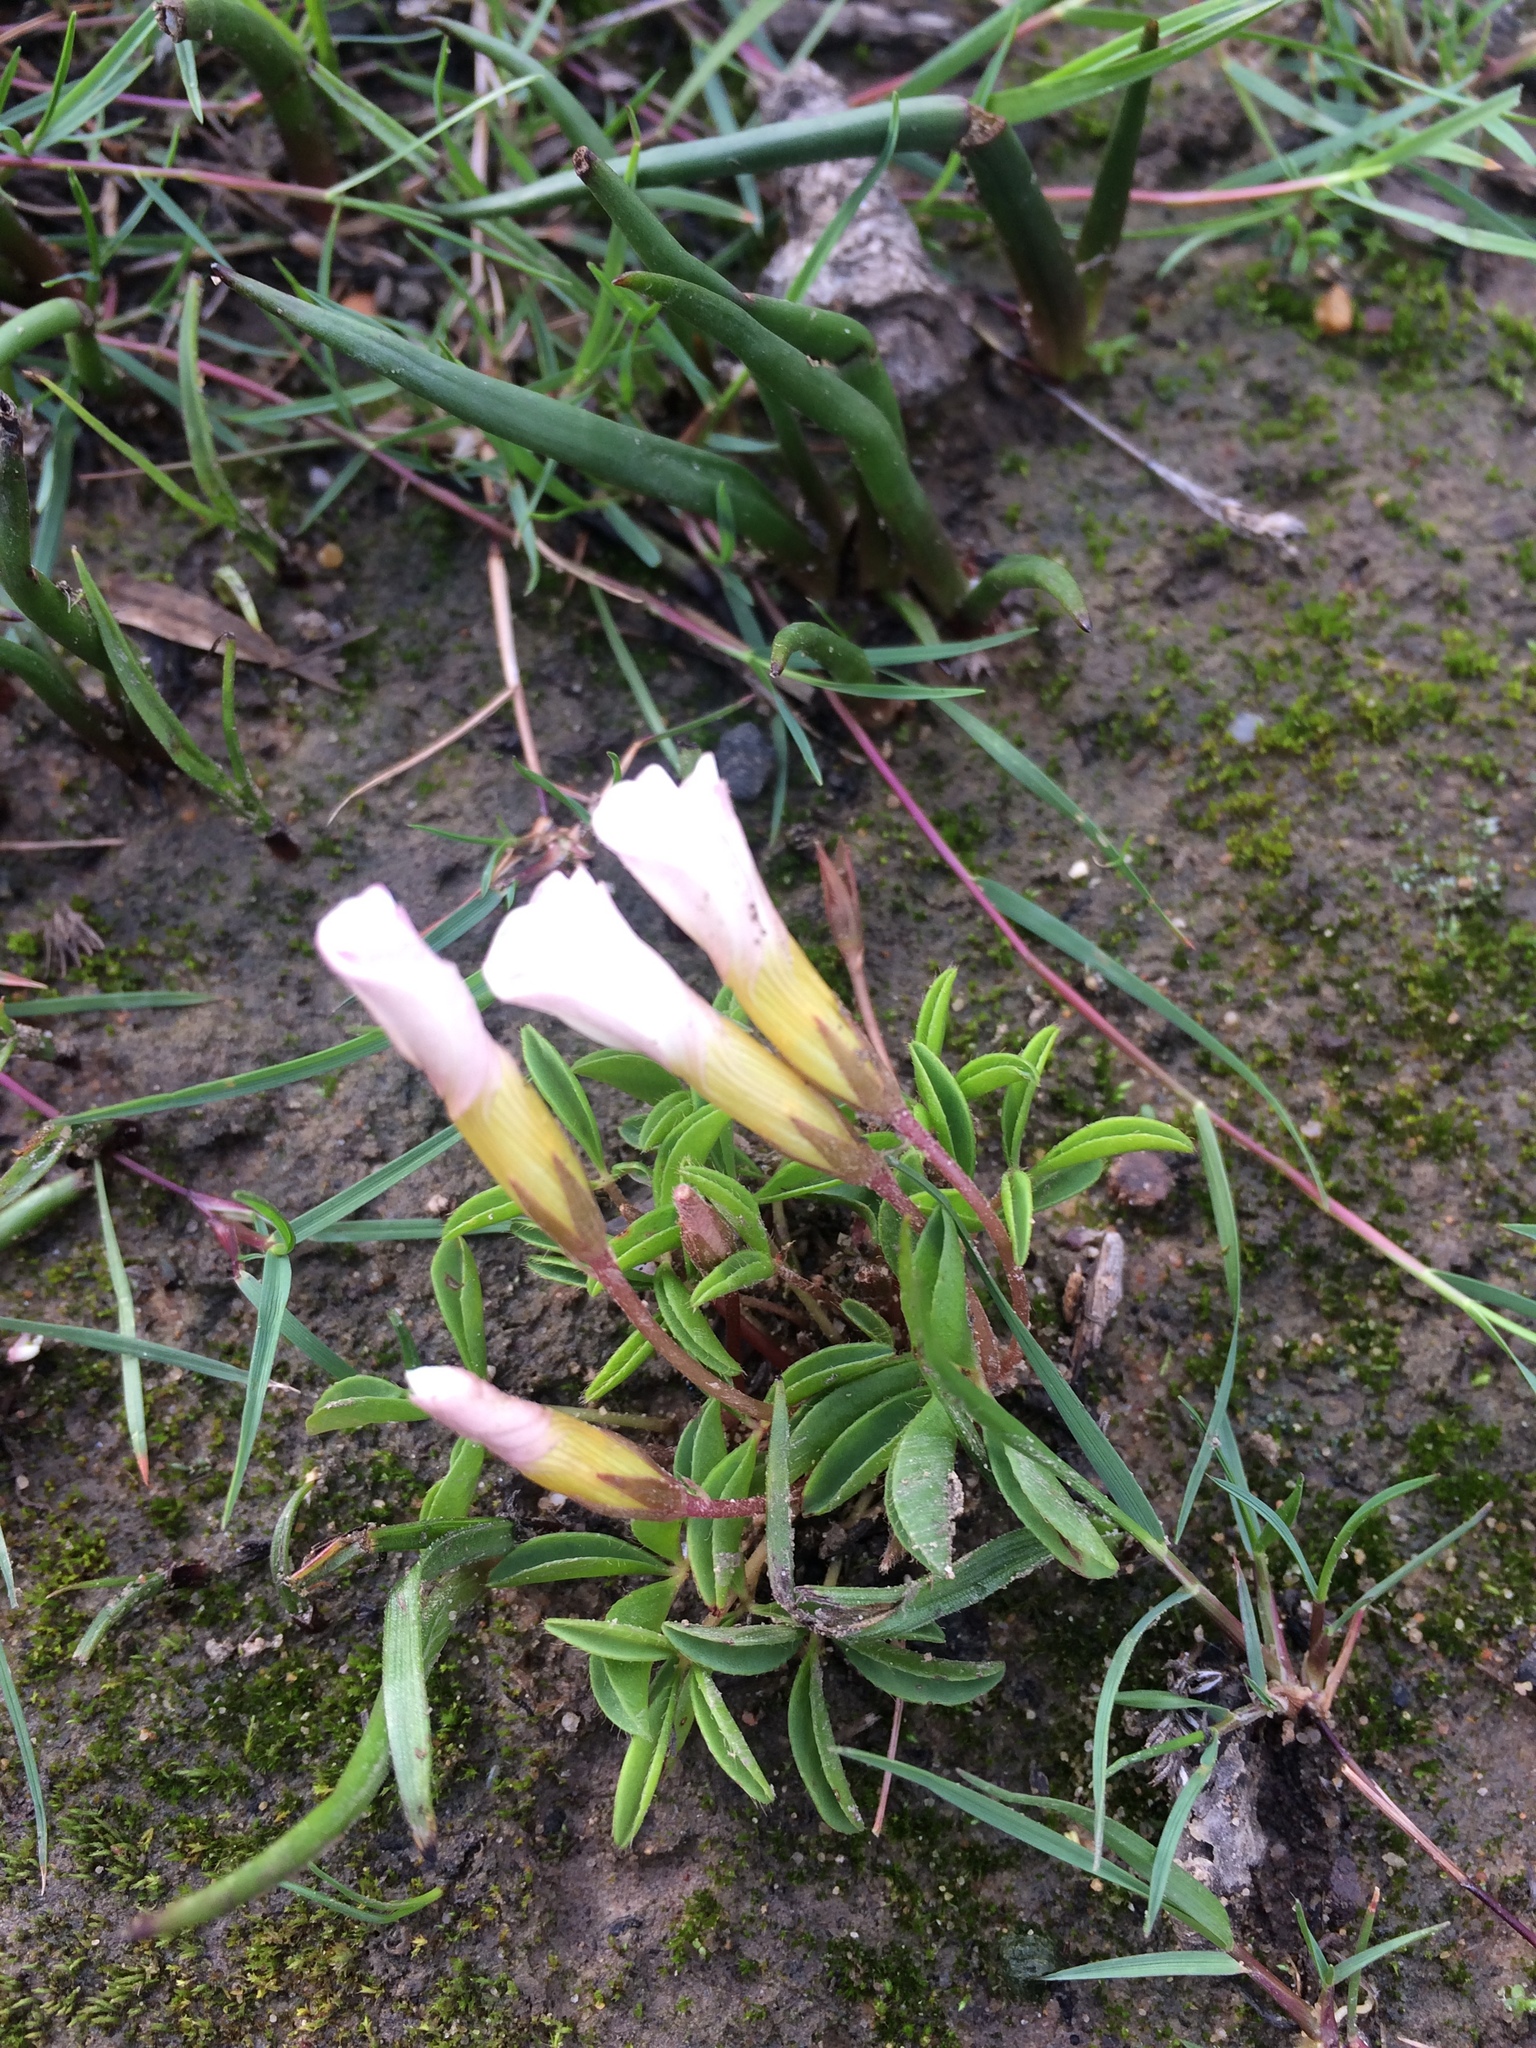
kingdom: Plantae
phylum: Tracheophyta
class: Magnoliopsida
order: Oxalidales
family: Oxalidaceae
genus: Oxalis
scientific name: Oxalis minuta
